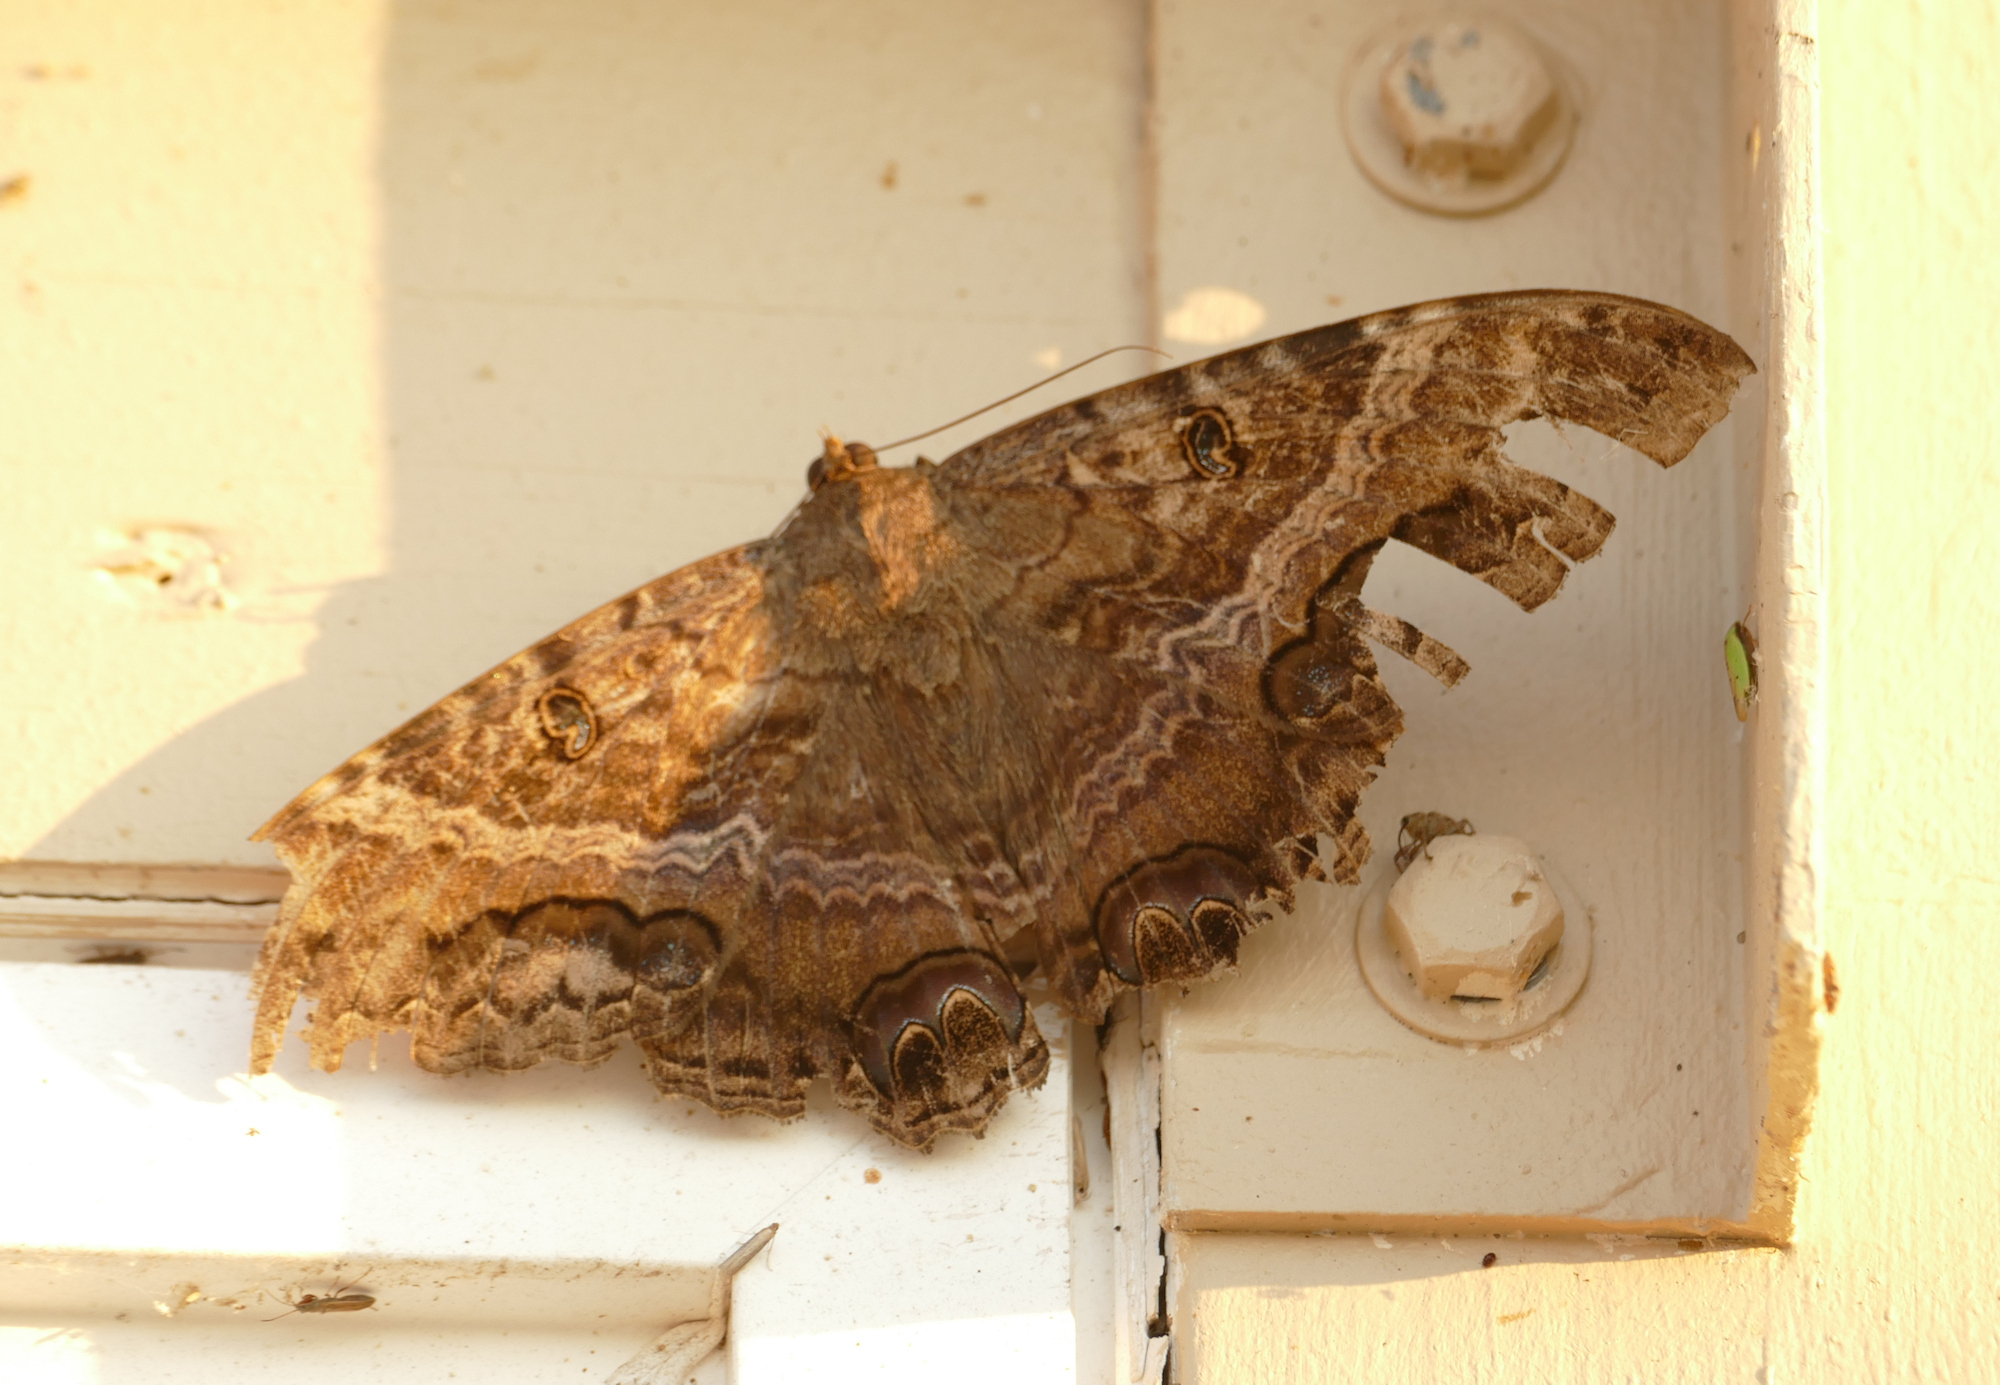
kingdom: Animalia
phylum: Arthropoda
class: Insecta
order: Lepidoptera
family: Erebidae
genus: Ascalapha
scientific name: Ascalapha odorata
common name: Black witch
